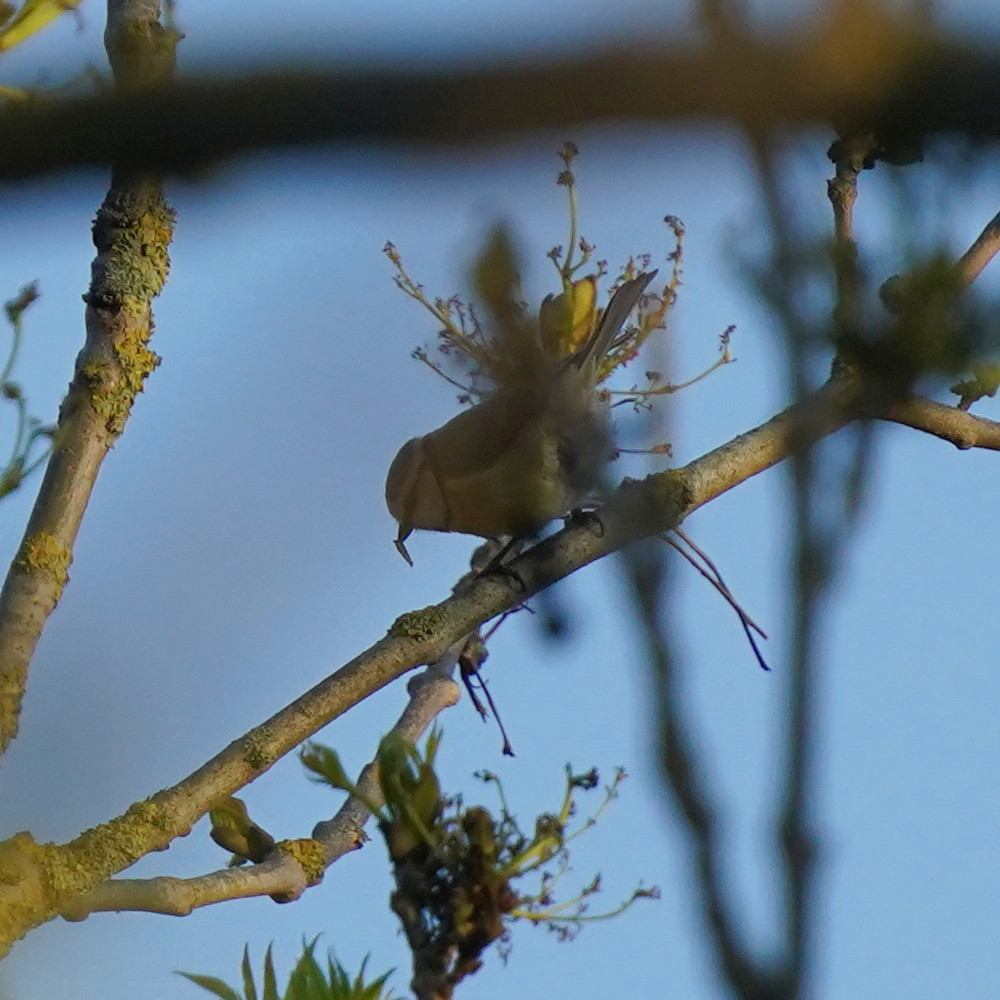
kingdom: Animalia
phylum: Chordata
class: Aves
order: Passeriformes
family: Paridae
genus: Cyanistes
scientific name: Cyanistes caeruleus
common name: Eurasian blue tit
